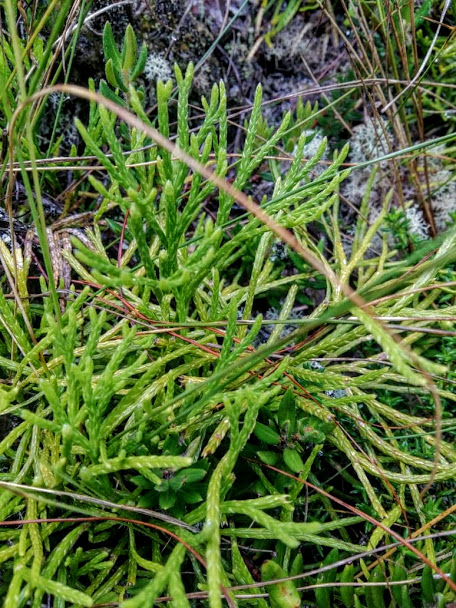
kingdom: Plantae
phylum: Tracheophyta
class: Lycopodiopsida
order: Lycopodiales
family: Lycopodiaceae
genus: Diphasiastrum
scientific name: Diphasiastrum thyoides
